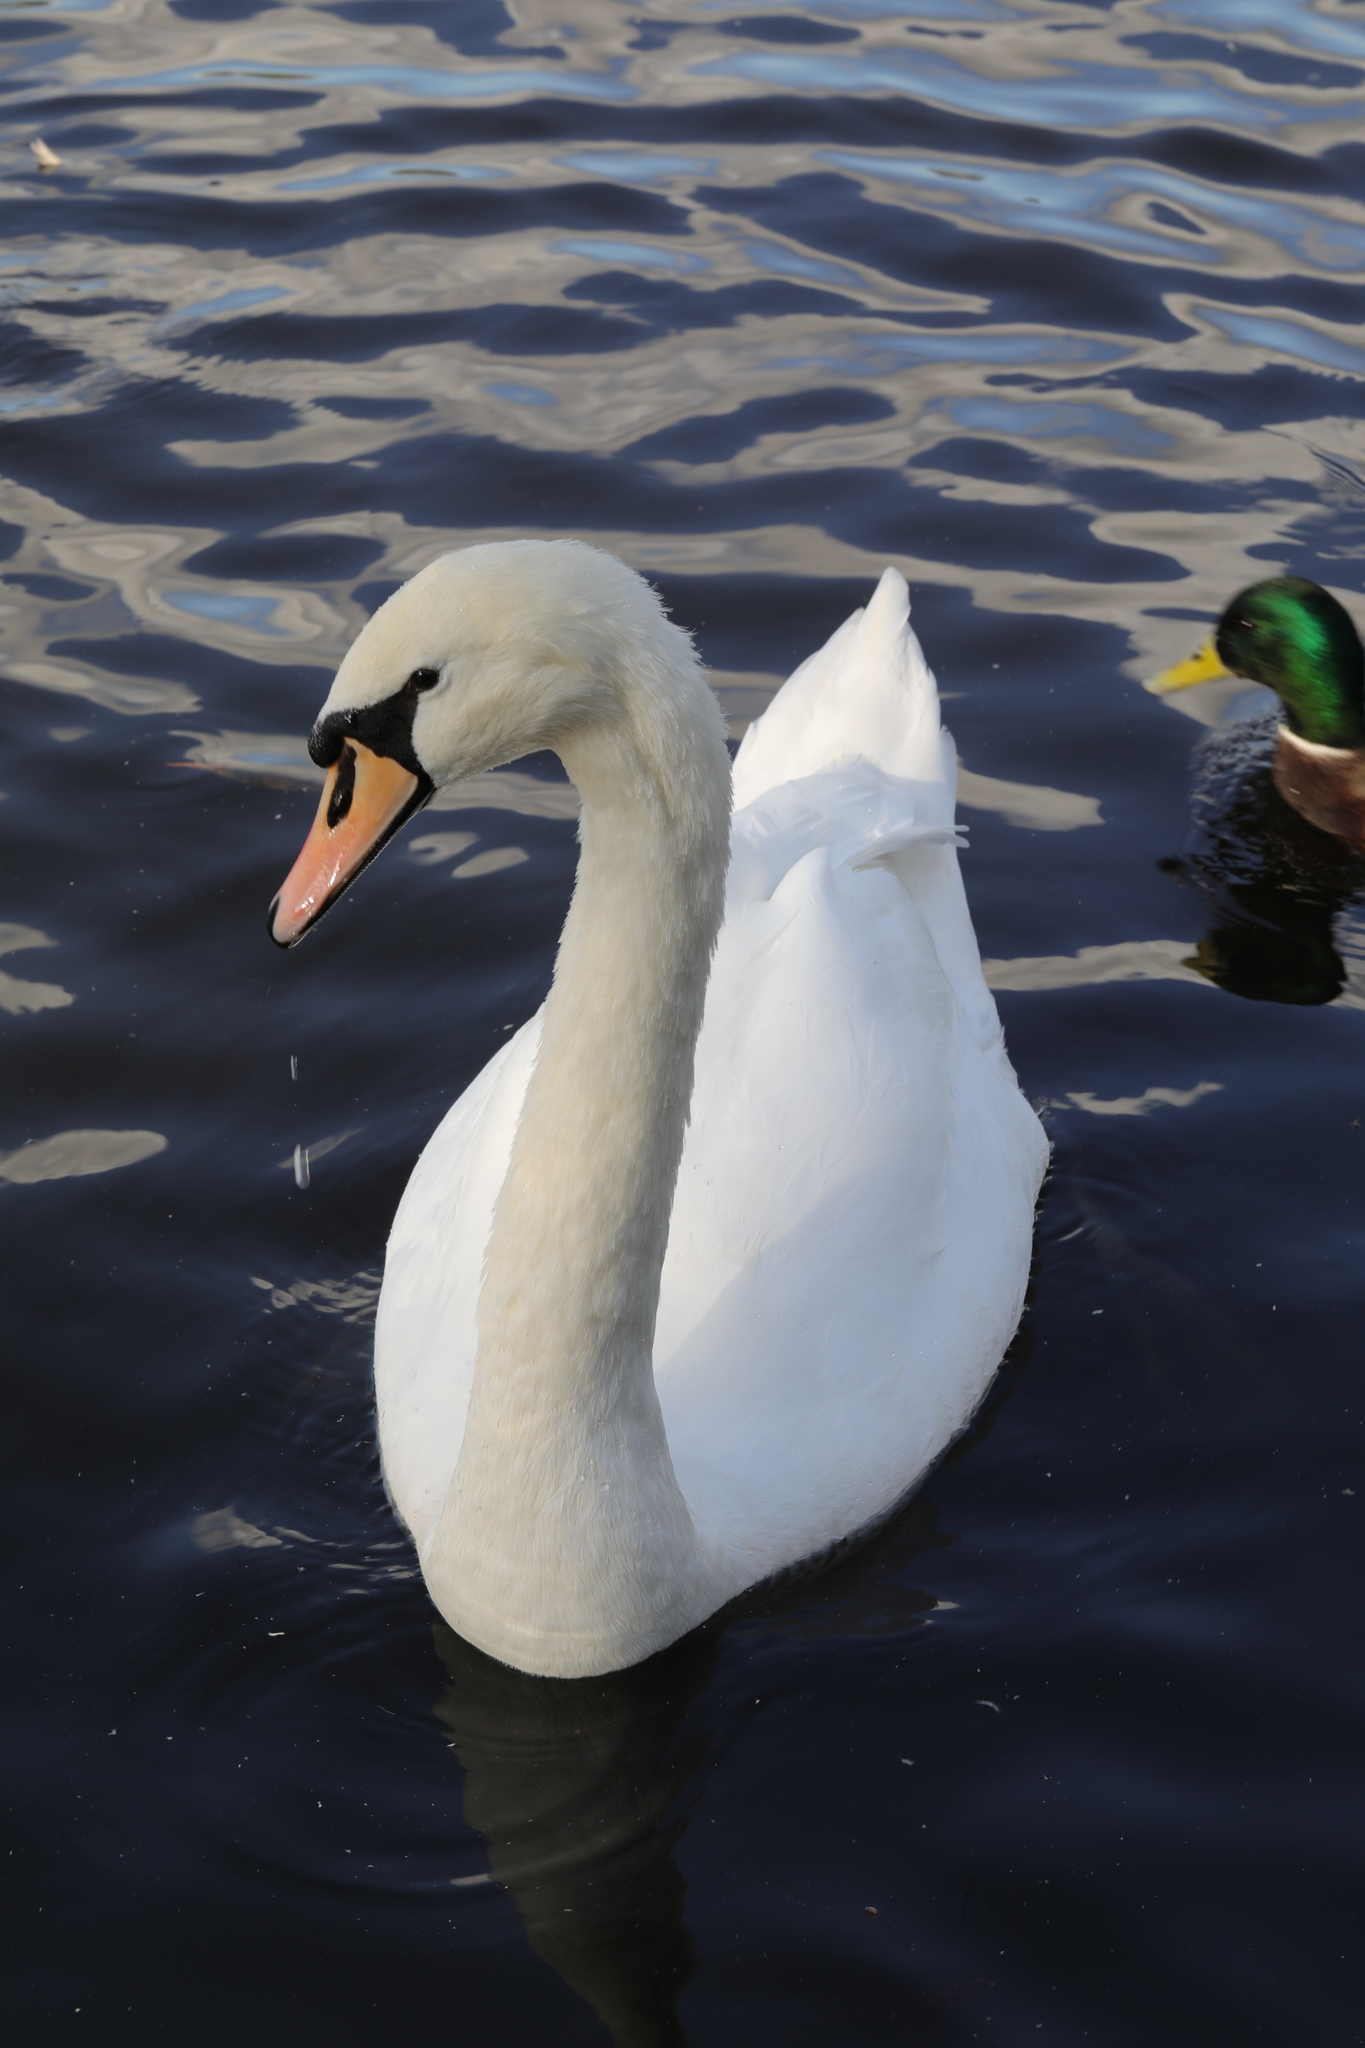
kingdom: Animalia
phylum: Chordata
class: Aves
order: Anseriformes
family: Anatidae
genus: Cygnus
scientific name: Cygnus olor
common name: Mute swan
